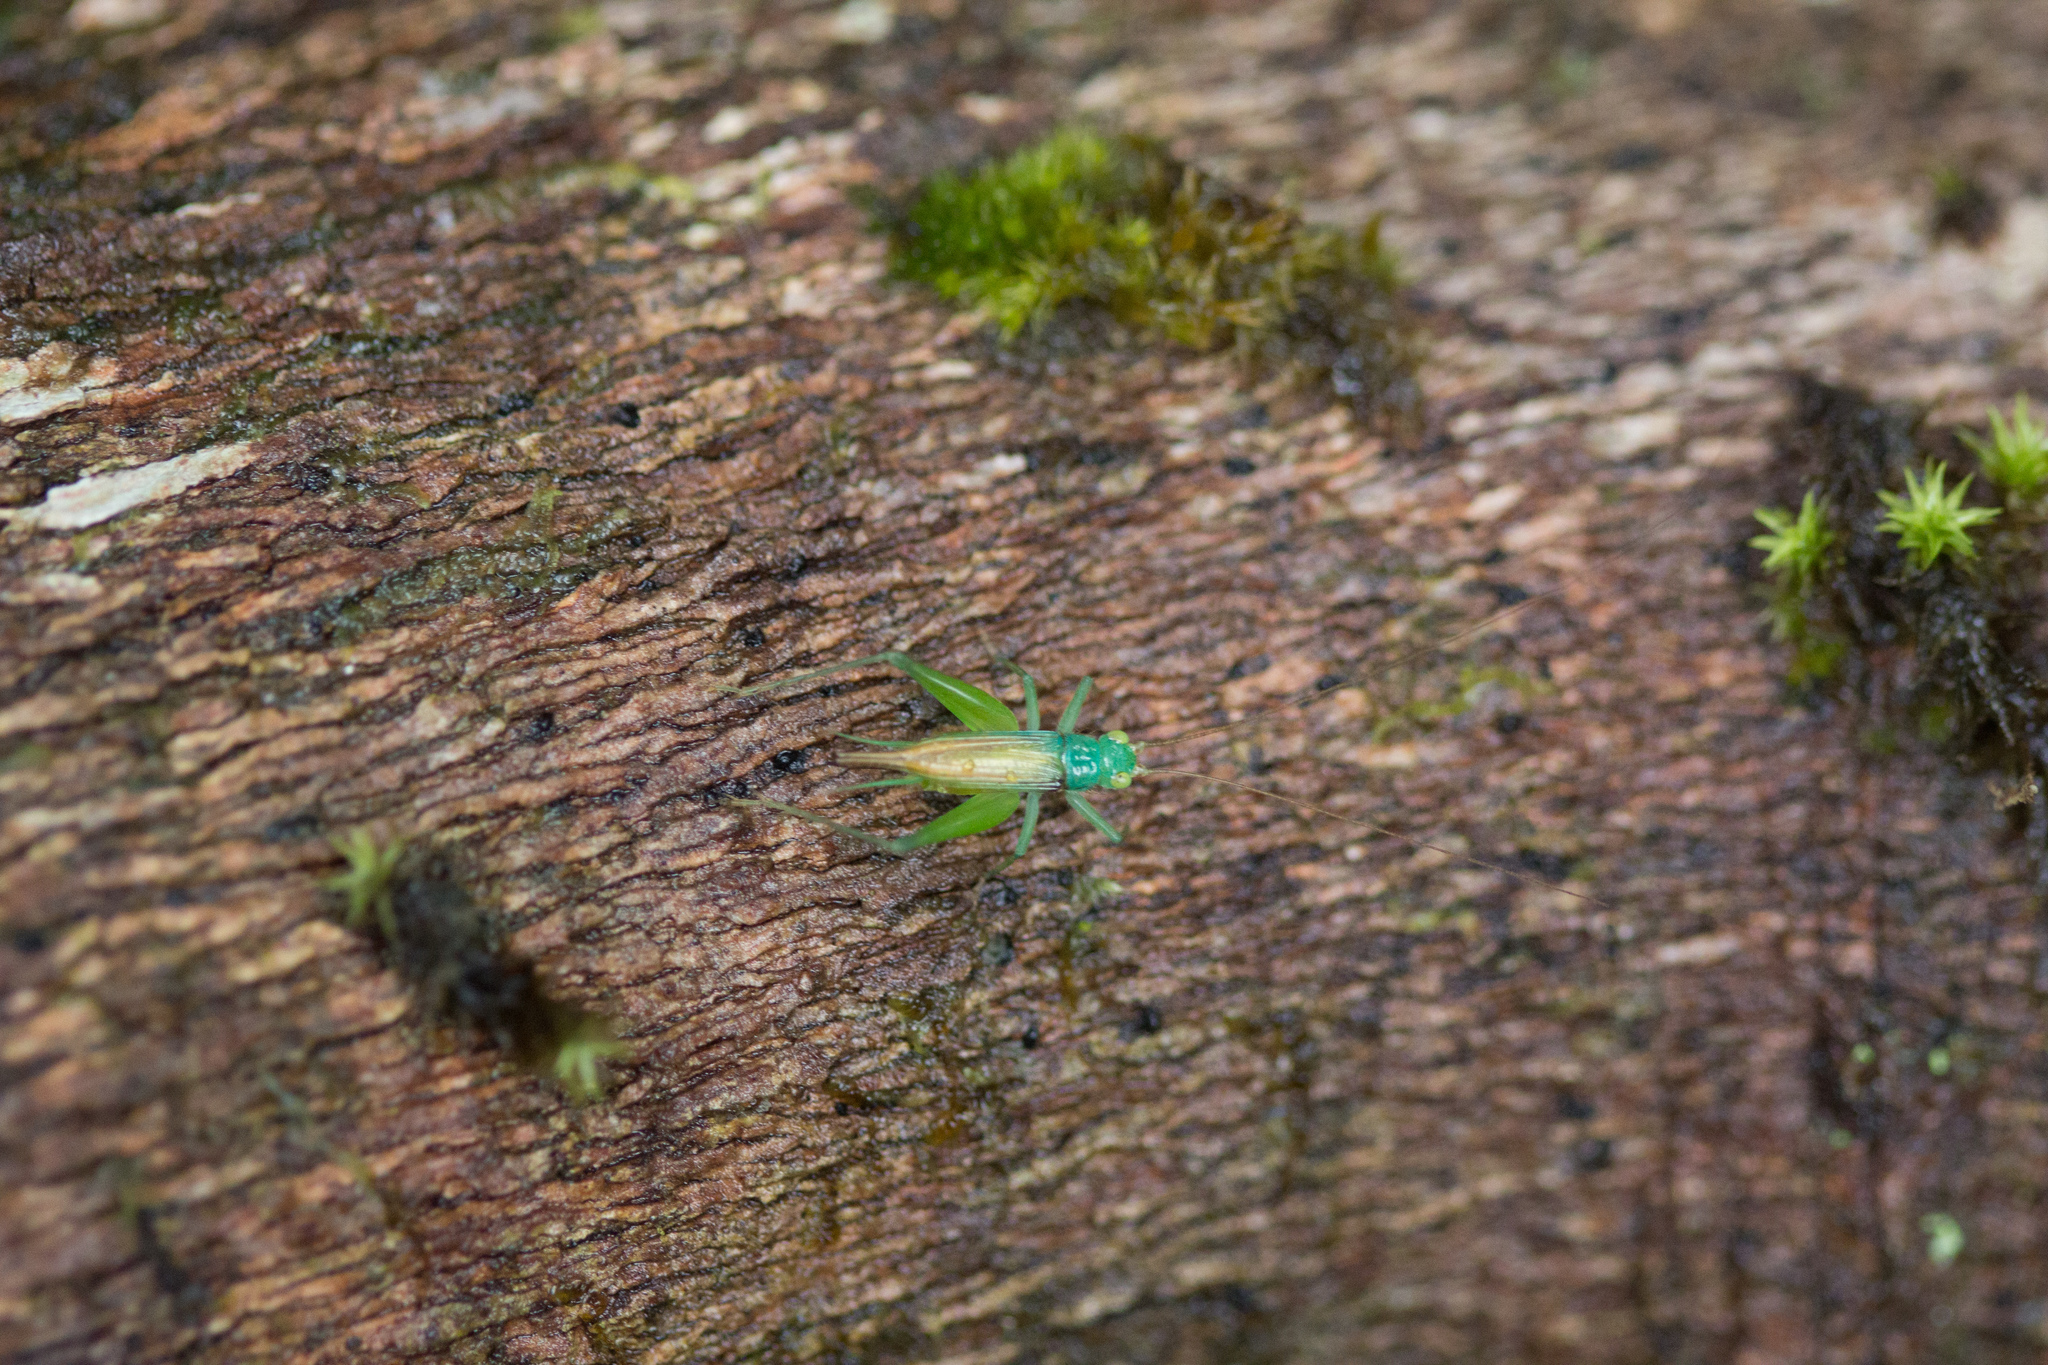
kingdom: Animalia
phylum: Arthropoda
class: Insecta
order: Orthoptera
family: Trigonidiidae
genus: Zarceomorpha
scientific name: Zarceomorpha abdita
